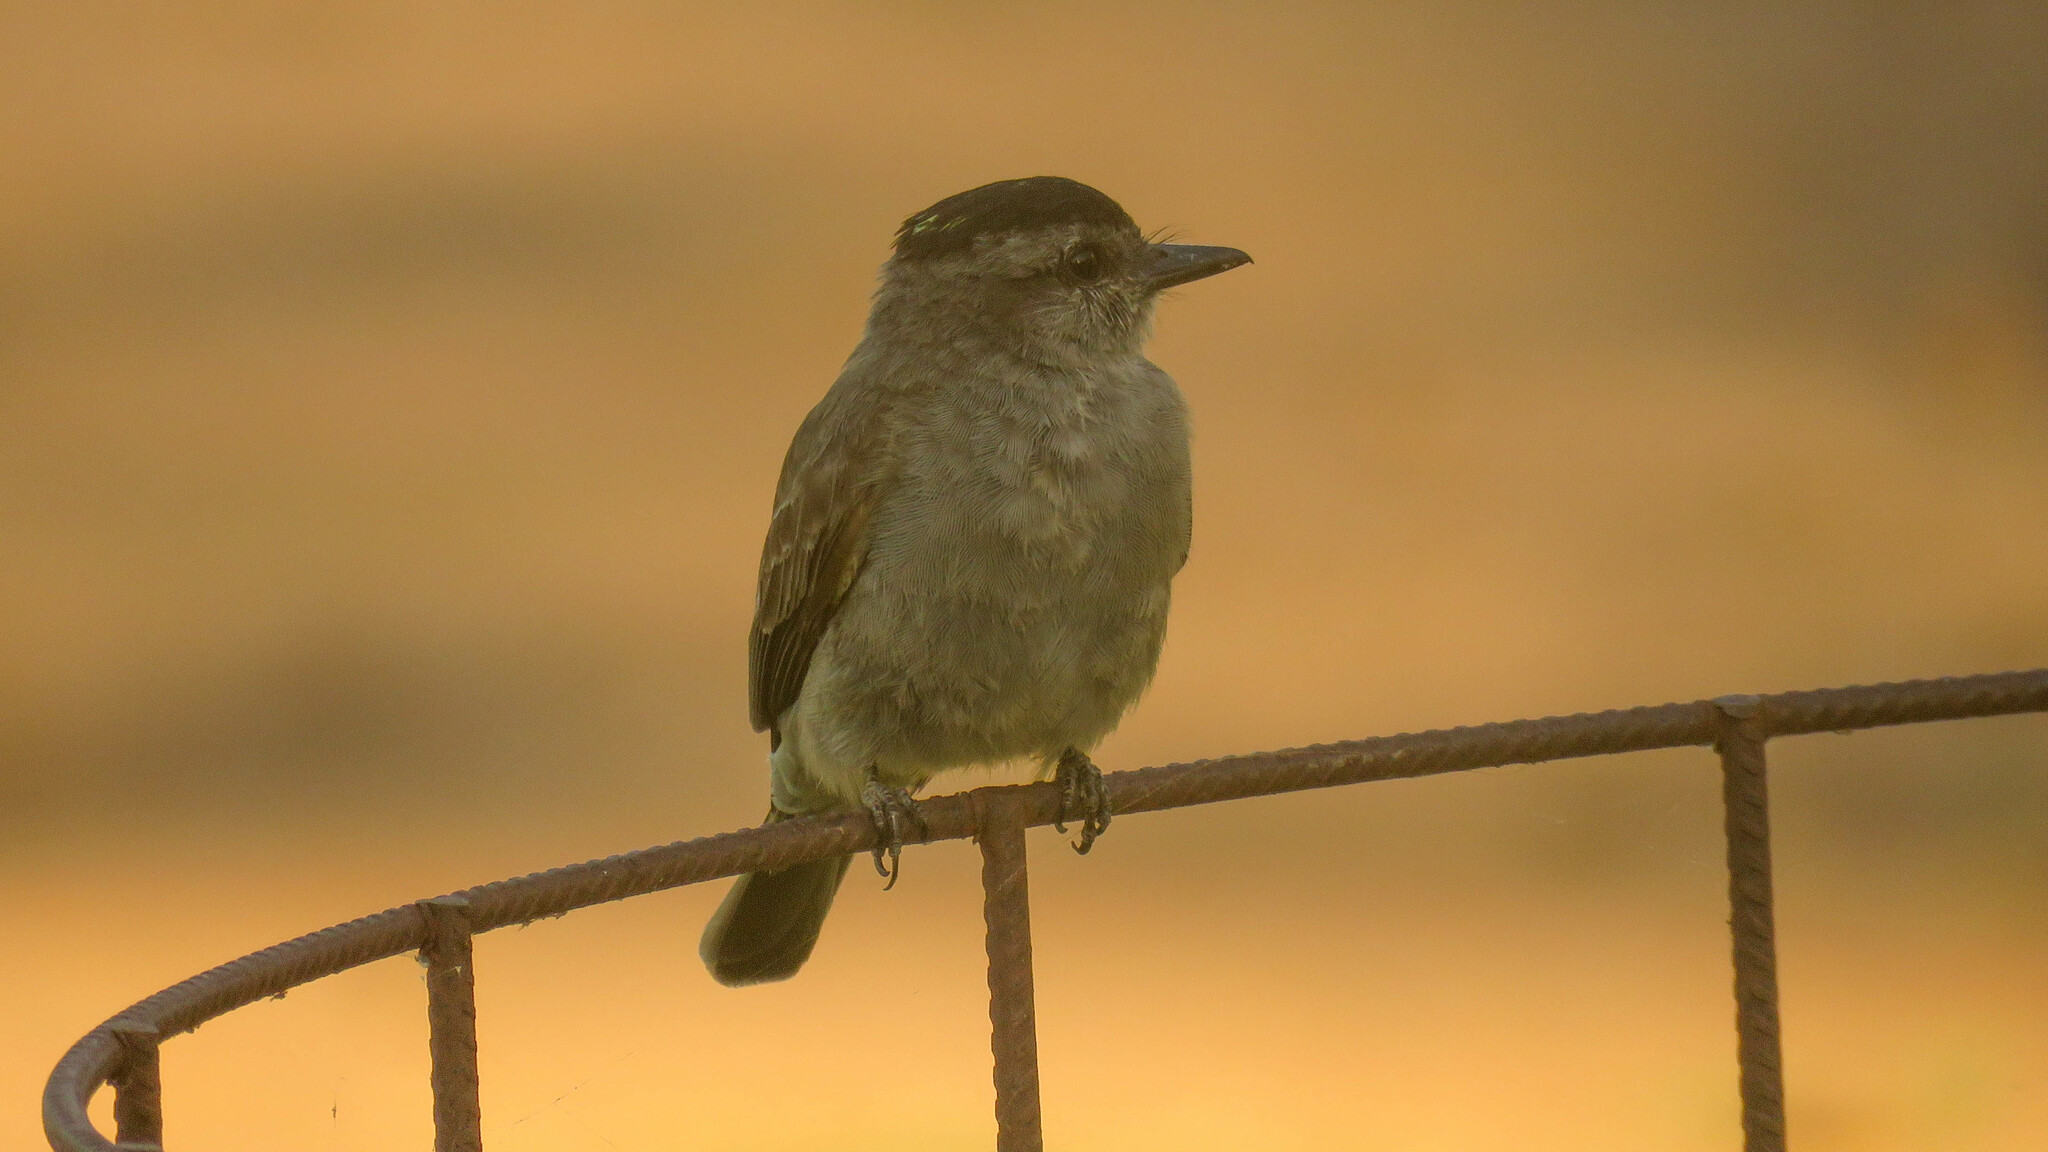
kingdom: Animalia
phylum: Chordata
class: Aves
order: Passeriformes
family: Tyrannidae
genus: Empidonomus
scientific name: Empidonomus aurantioatrocristatus
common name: Crowned slaty flycatcher
